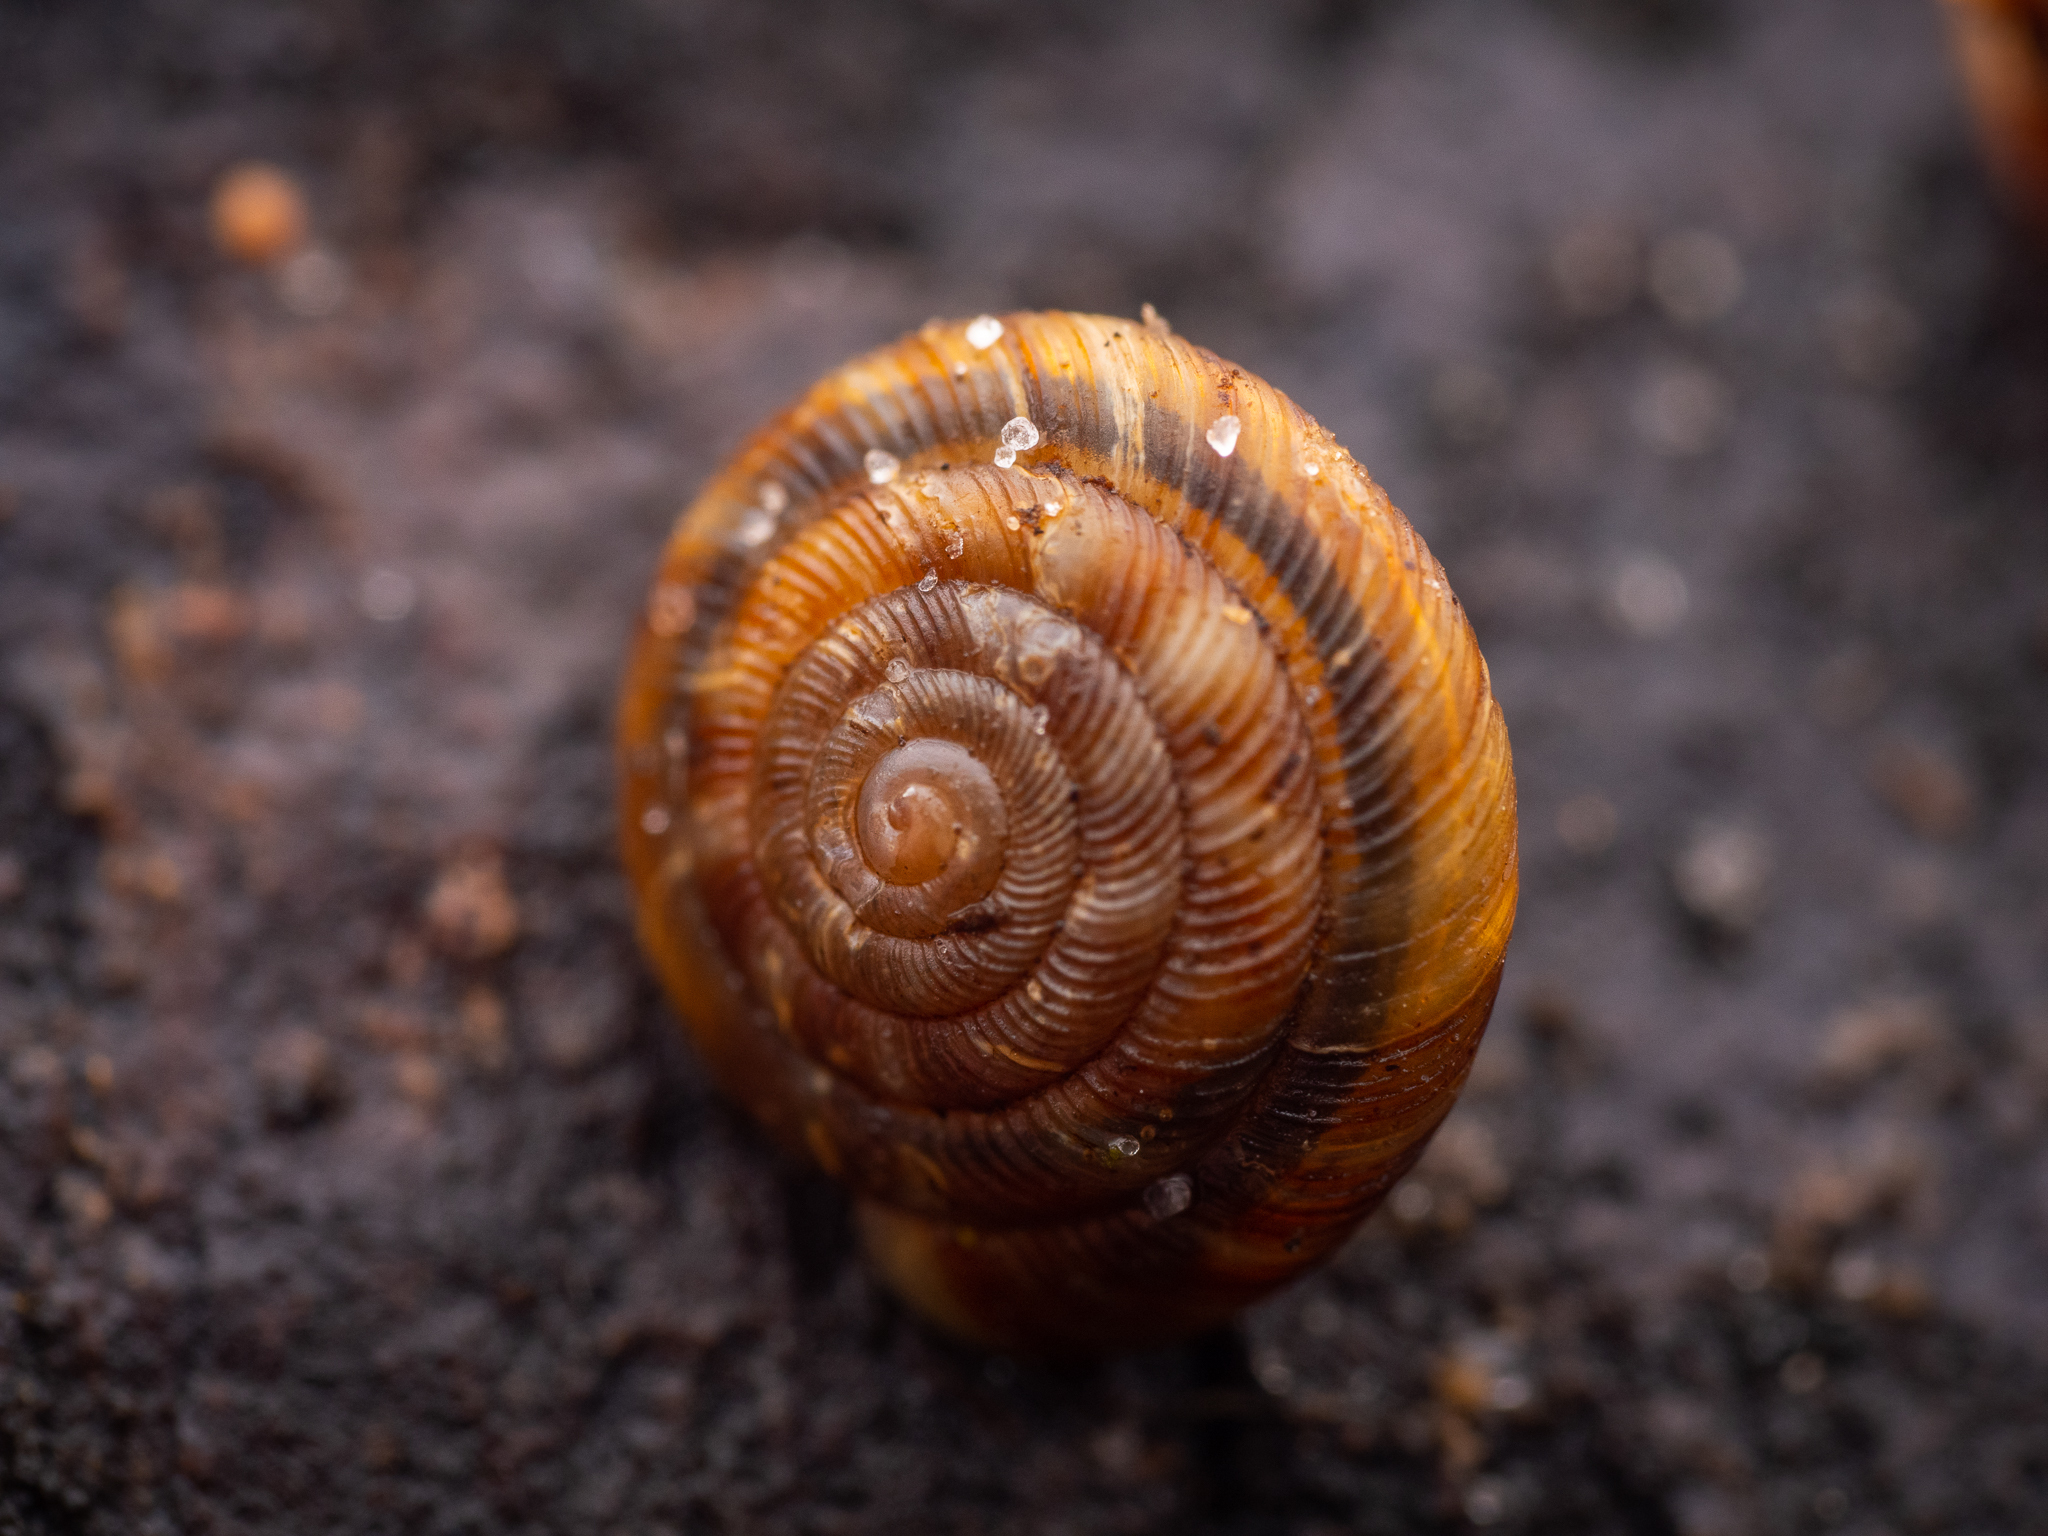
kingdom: Animalia
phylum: Mollusca
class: Gastropoda
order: Stylommatophora
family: Discidae
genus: Discus
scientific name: Discus rotundatus
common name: Rounded snail
